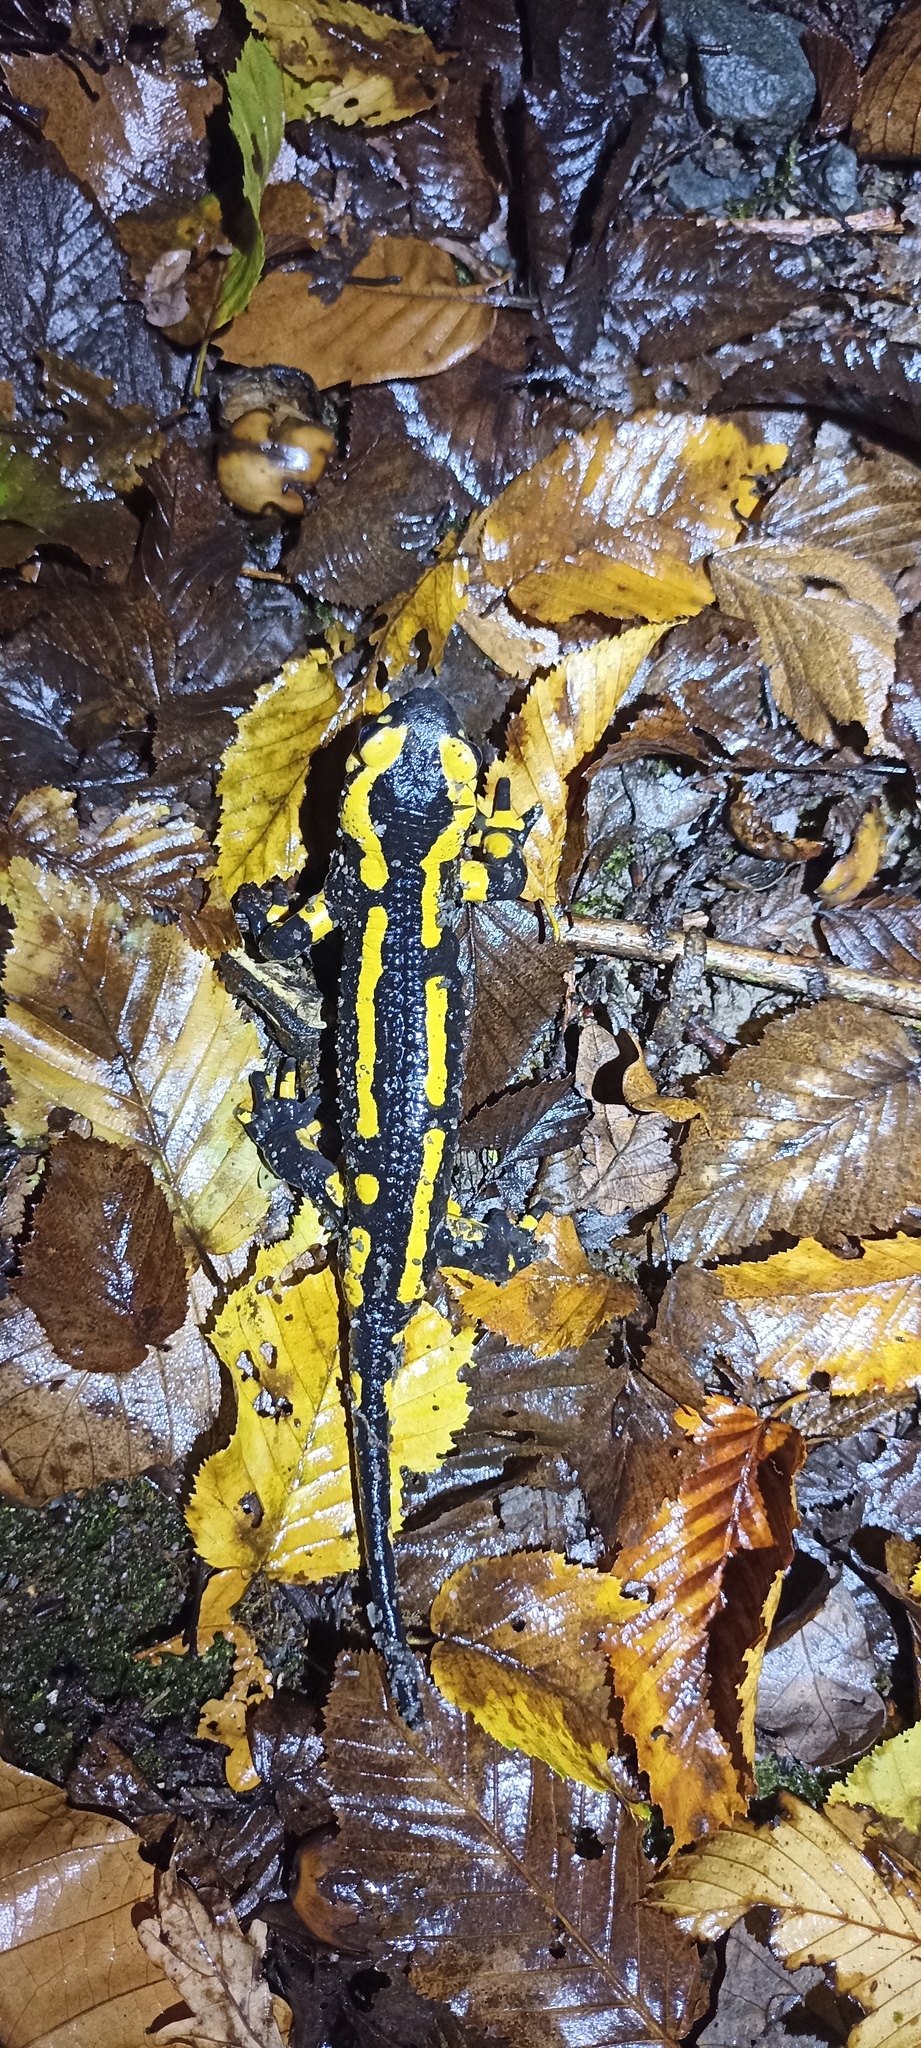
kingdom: Animalia
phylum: Chordata
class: Amphibia
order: Caudata
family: Salamandridae
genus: Salamandra
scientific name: Salamandra salamandra
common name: Fire salamander
